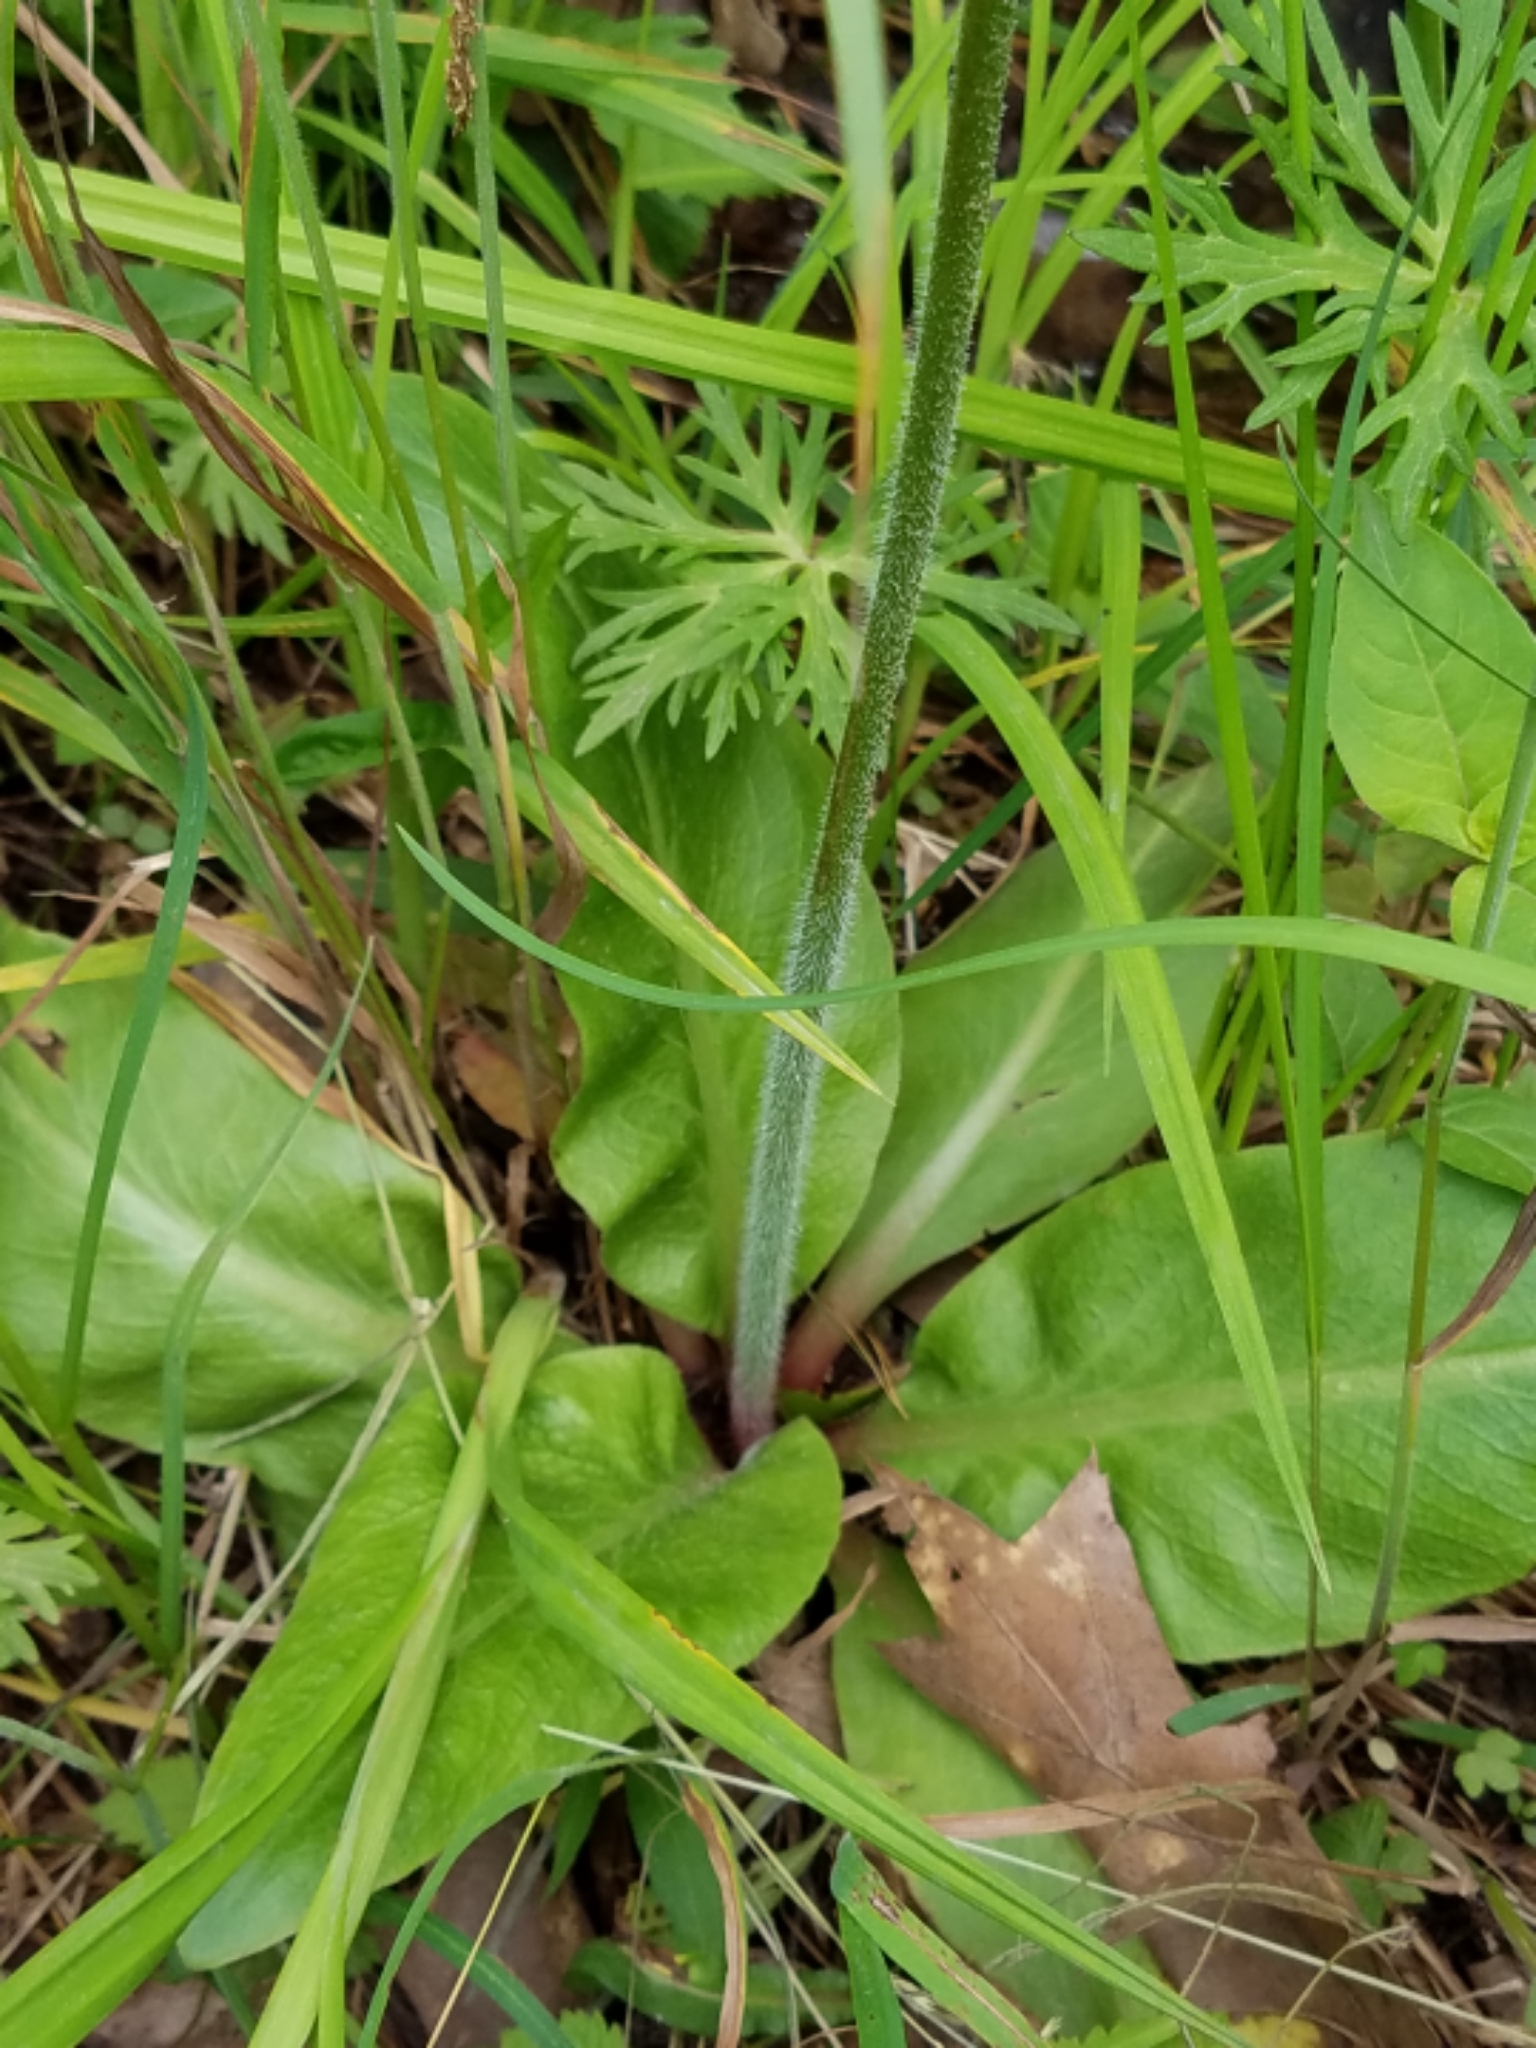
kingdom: Plantae
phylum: Tracheophyta
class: Magnoliopsida
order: Saxifragales
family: Saxifragaceae
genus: Micranthes
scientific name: Micranthes pensylvanica
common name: Marsh saxifrage
